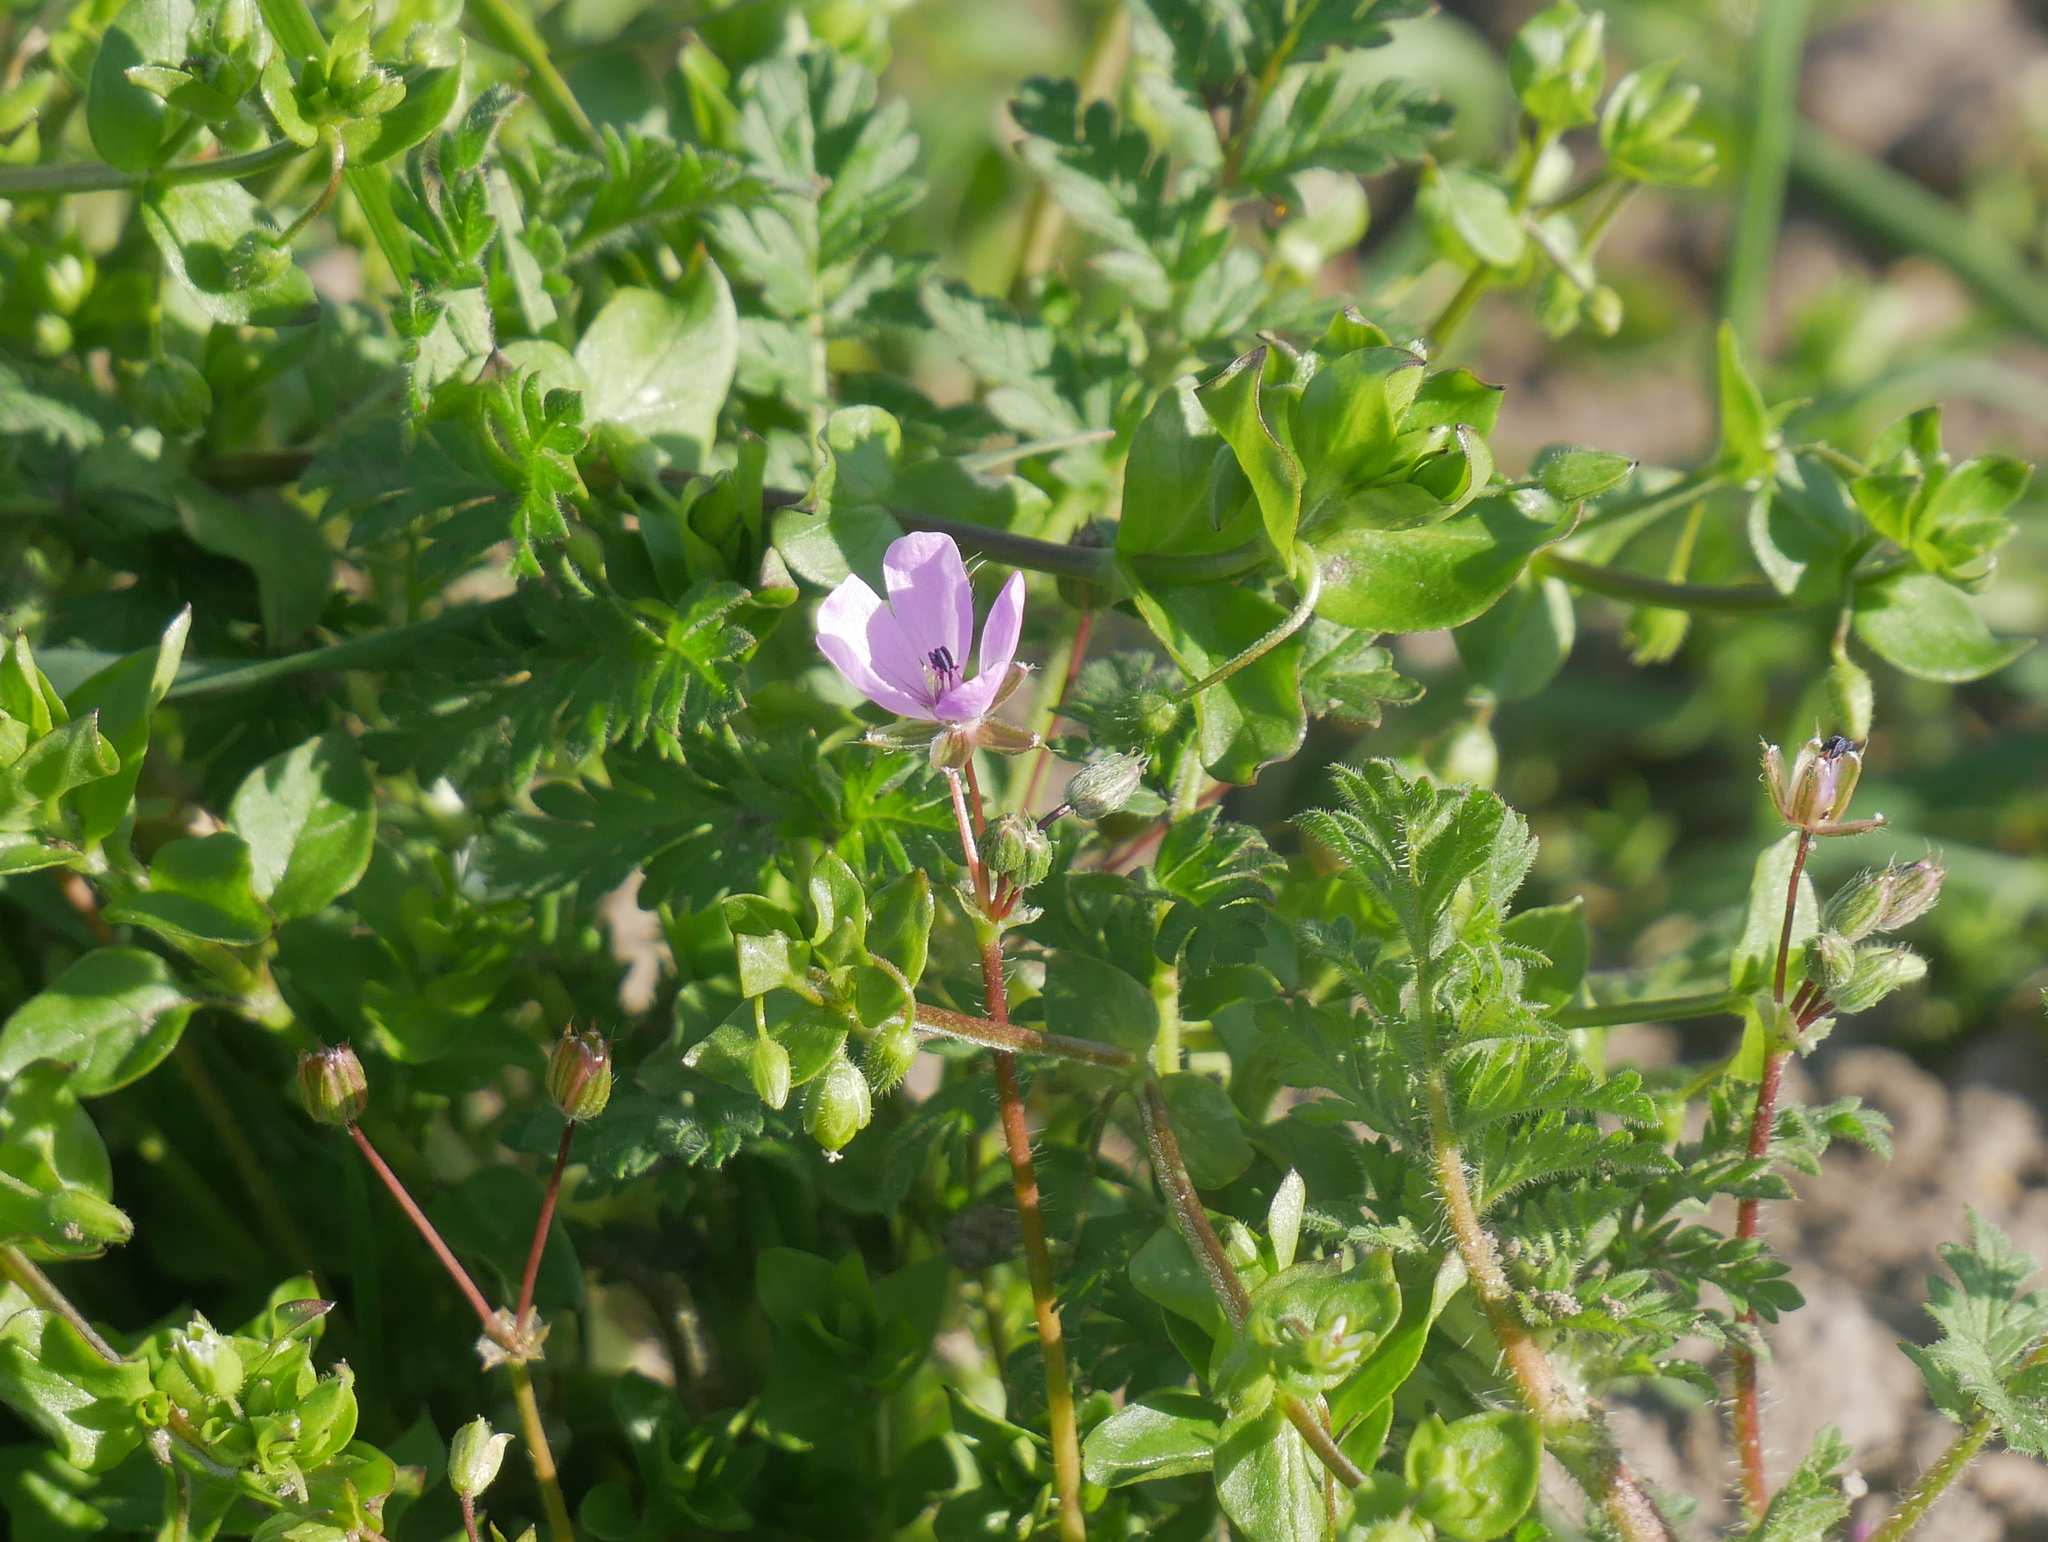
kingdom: Plantae
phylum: Tracheophyta
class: Magnoliopsida
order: Geraniales
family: Geraniaceae
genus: Erodium
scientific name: Erodium cicutarium
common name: Common stork's-bill
